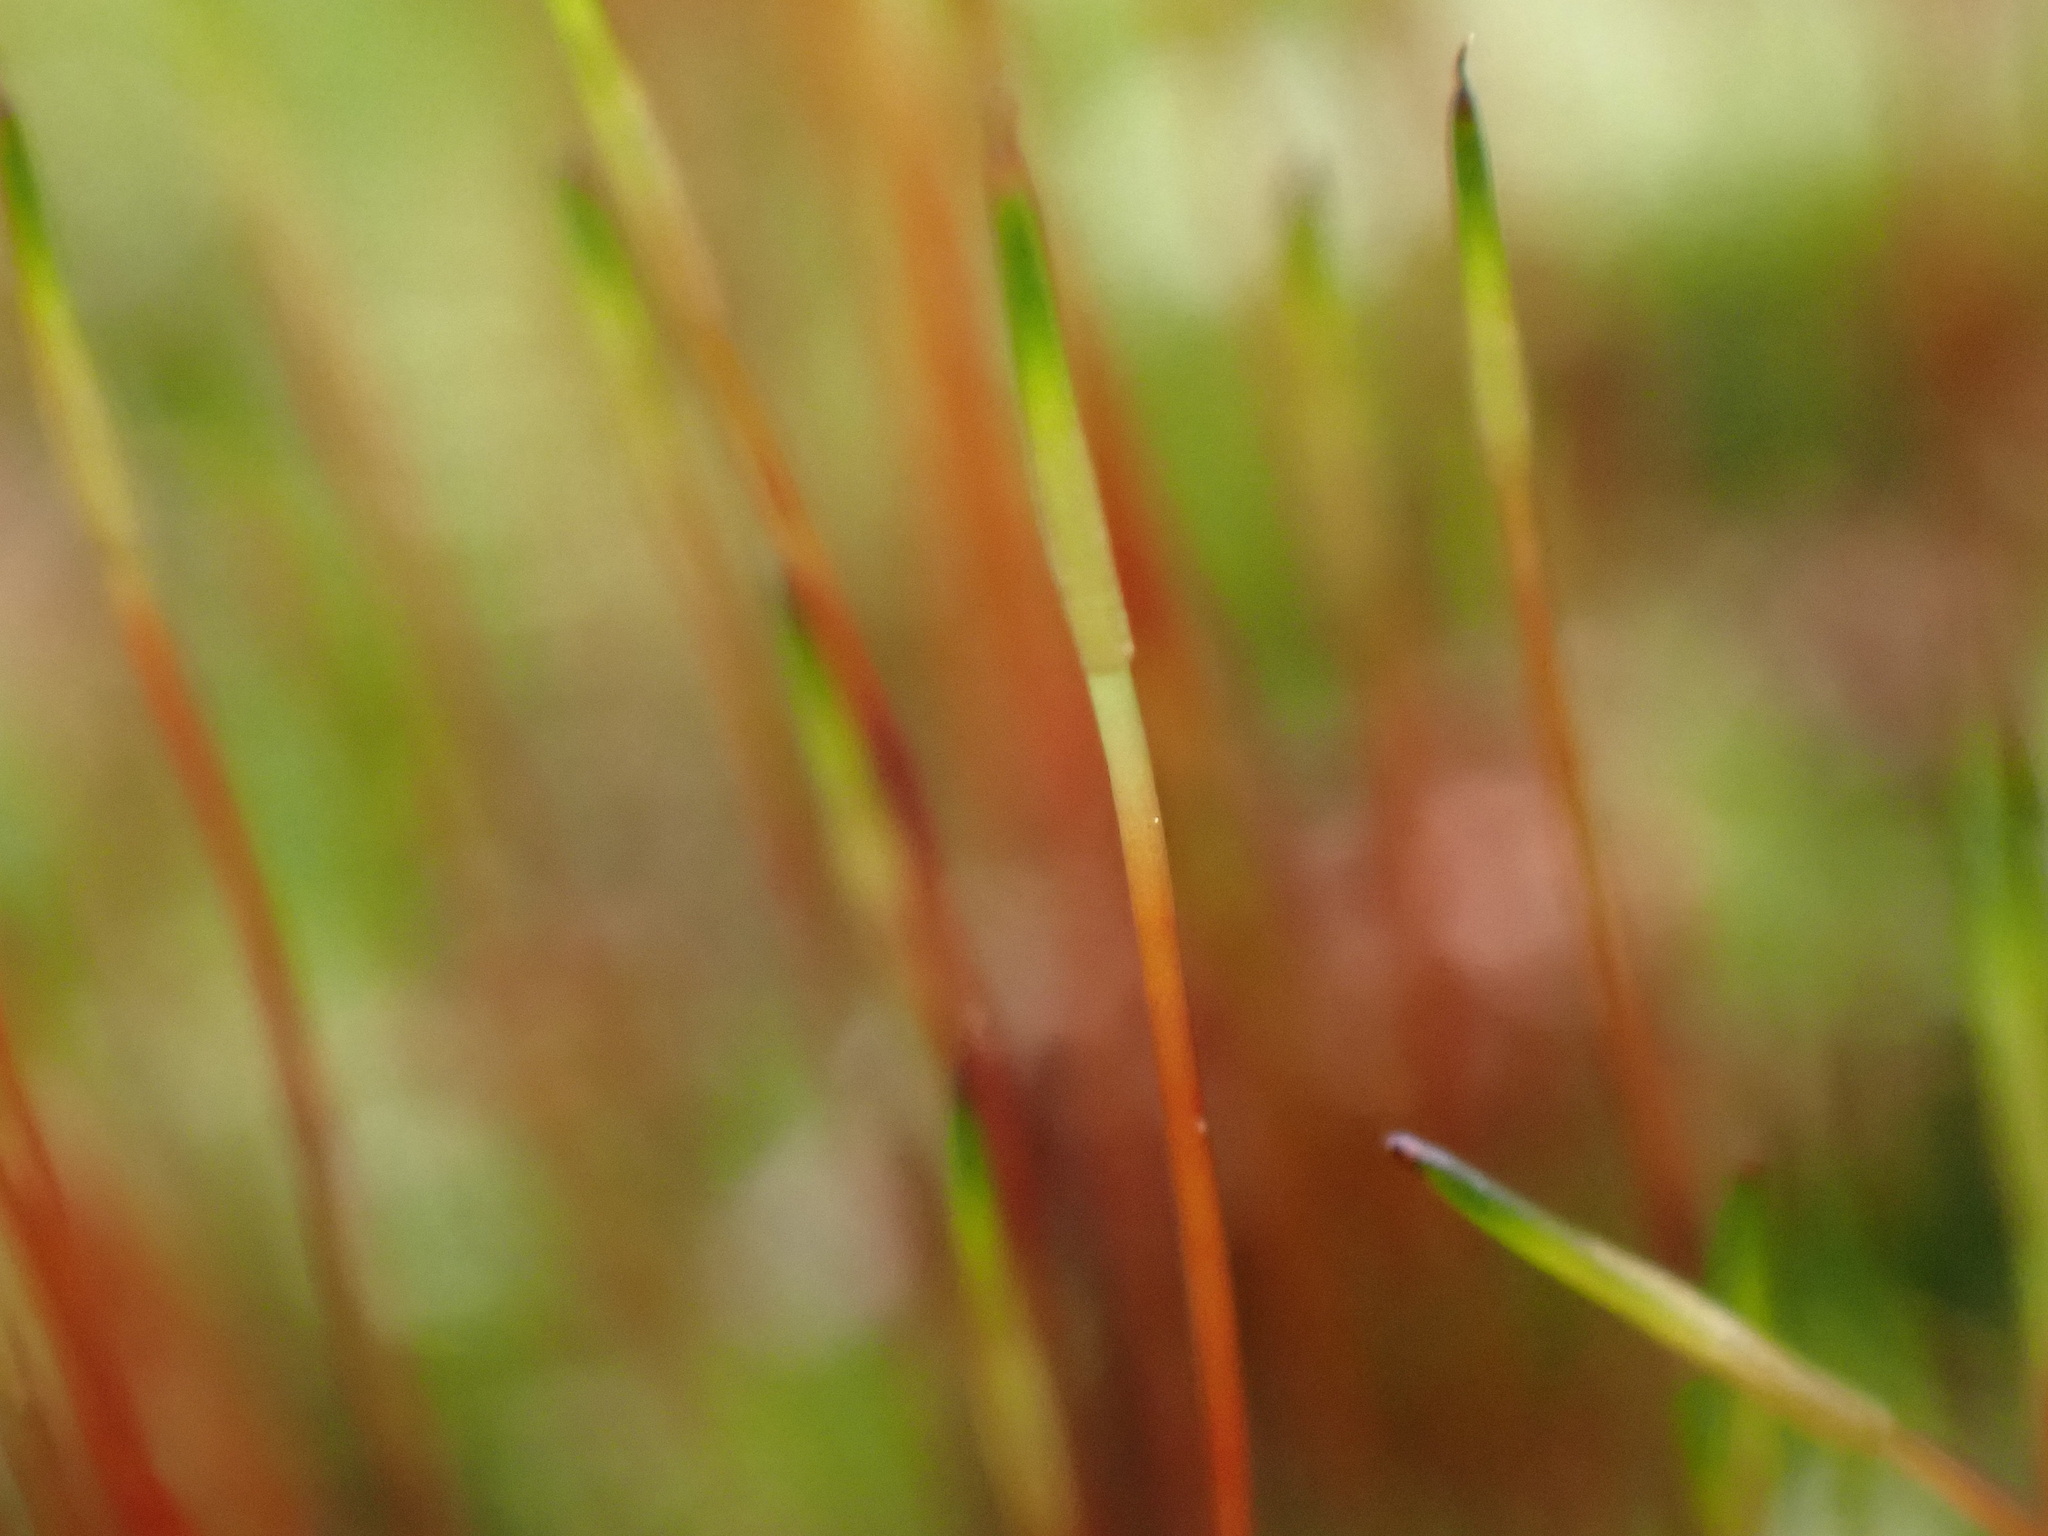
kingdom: Plantae
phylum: Bryophyta
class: Bryopsida
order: Bryales
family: Mniaceae
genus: Pohlia
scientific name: Pohlia nutans
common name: Nodding thread-moss
